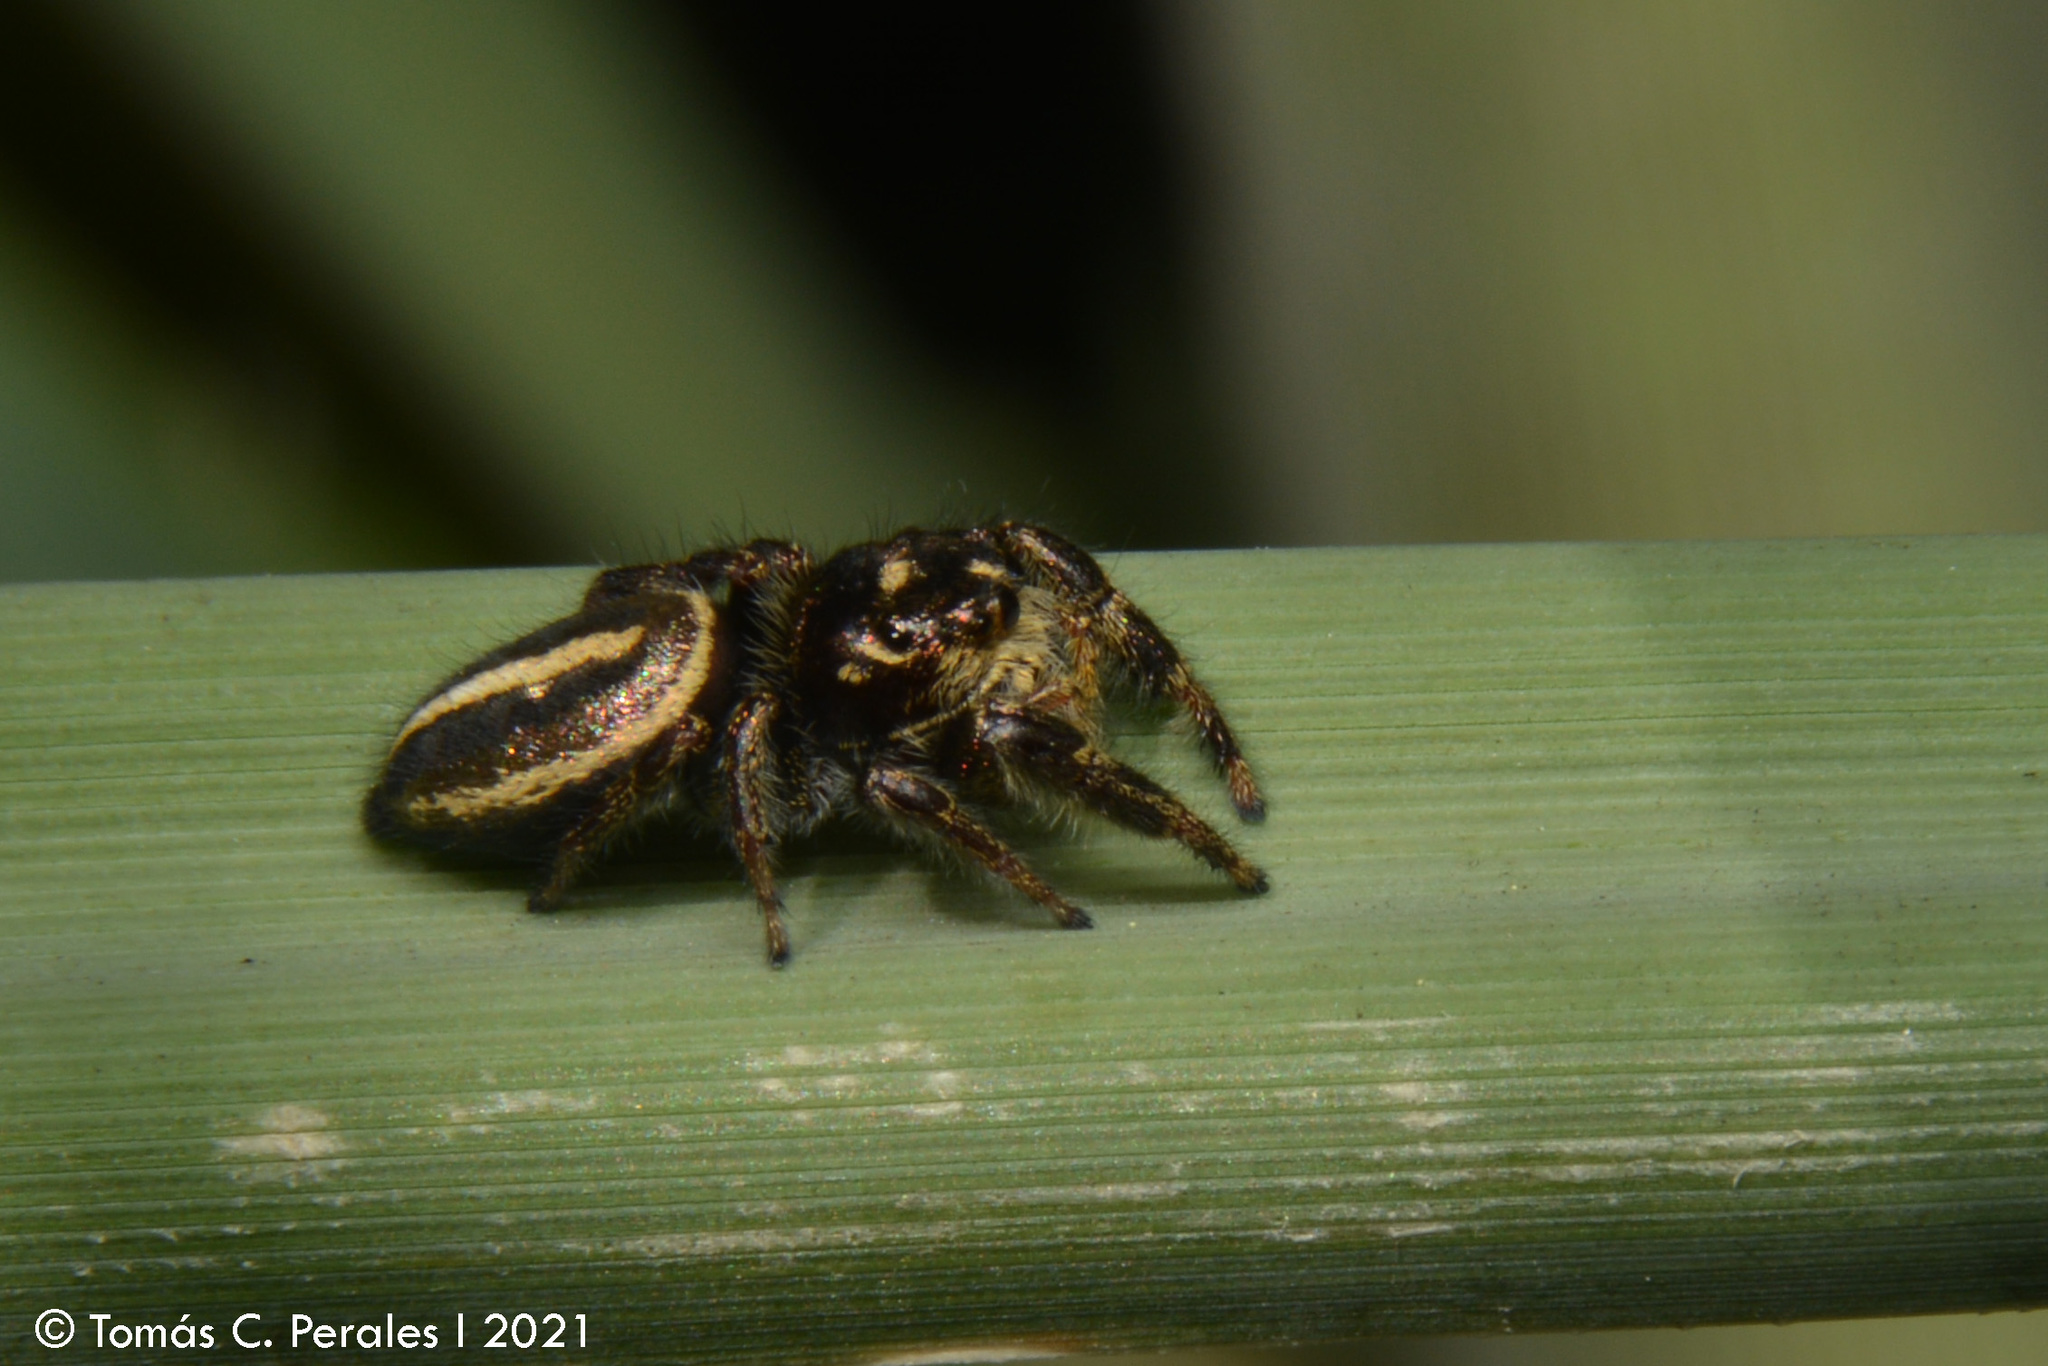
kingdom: Animalia
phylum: Arthropoda
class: Arachnida
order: Araneae
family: Salticidae
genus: Dendryphantes
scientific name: Dendryphantes mordax
